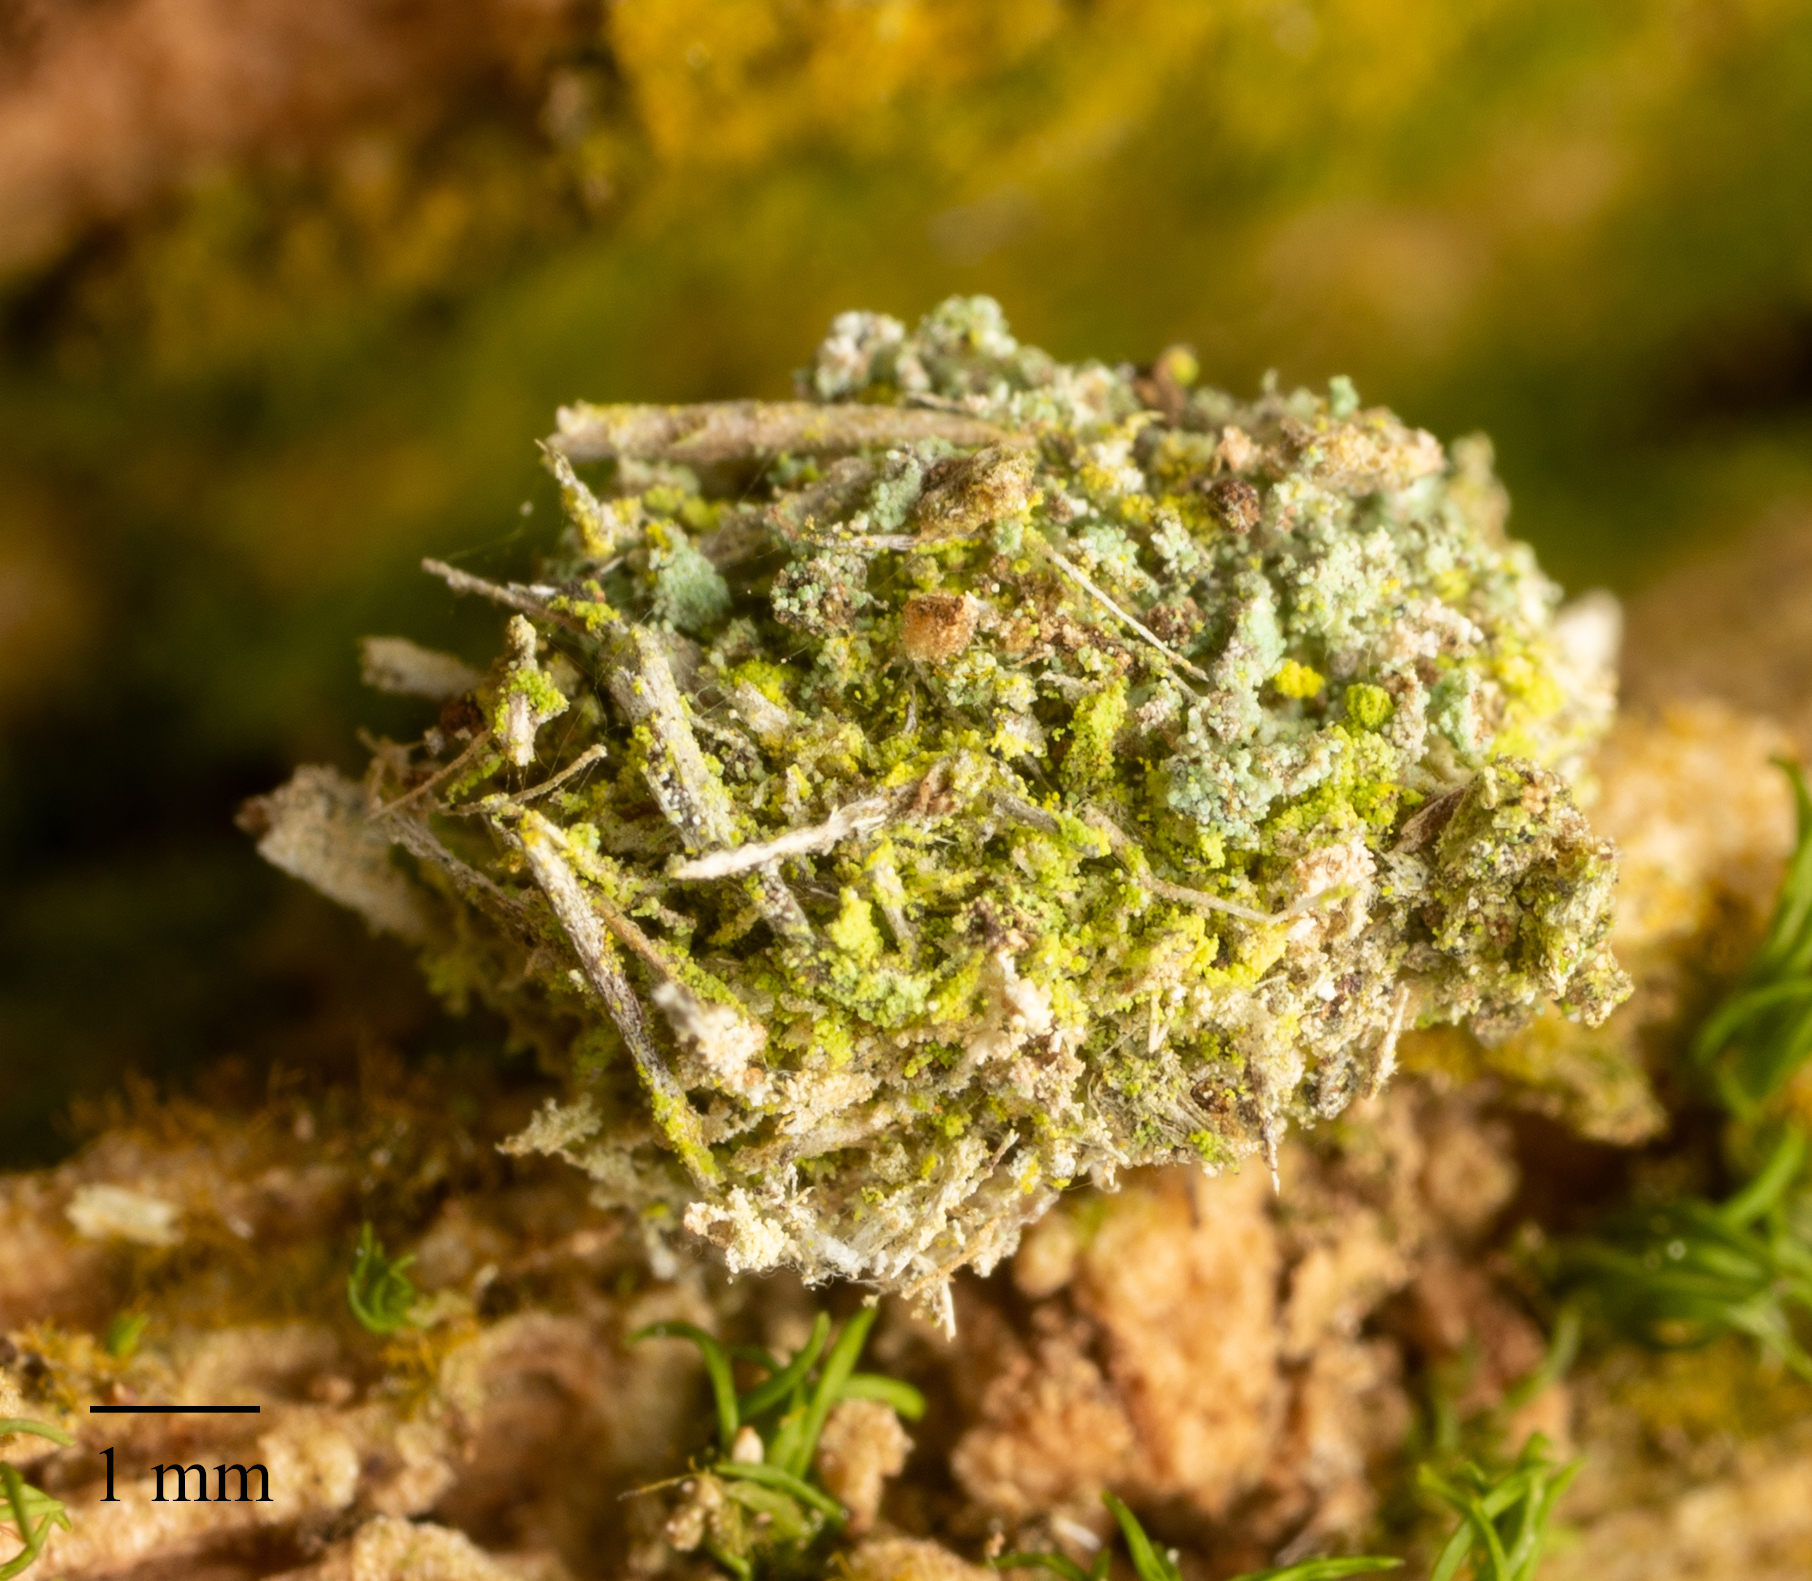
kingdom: Animalia
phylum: Arthropoda
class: Insecta
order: Neuroptera
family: Chrysopidae
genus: Leucochrysa
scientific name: Leucochrysa pavida
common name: Lichen-carrying green lacewing
